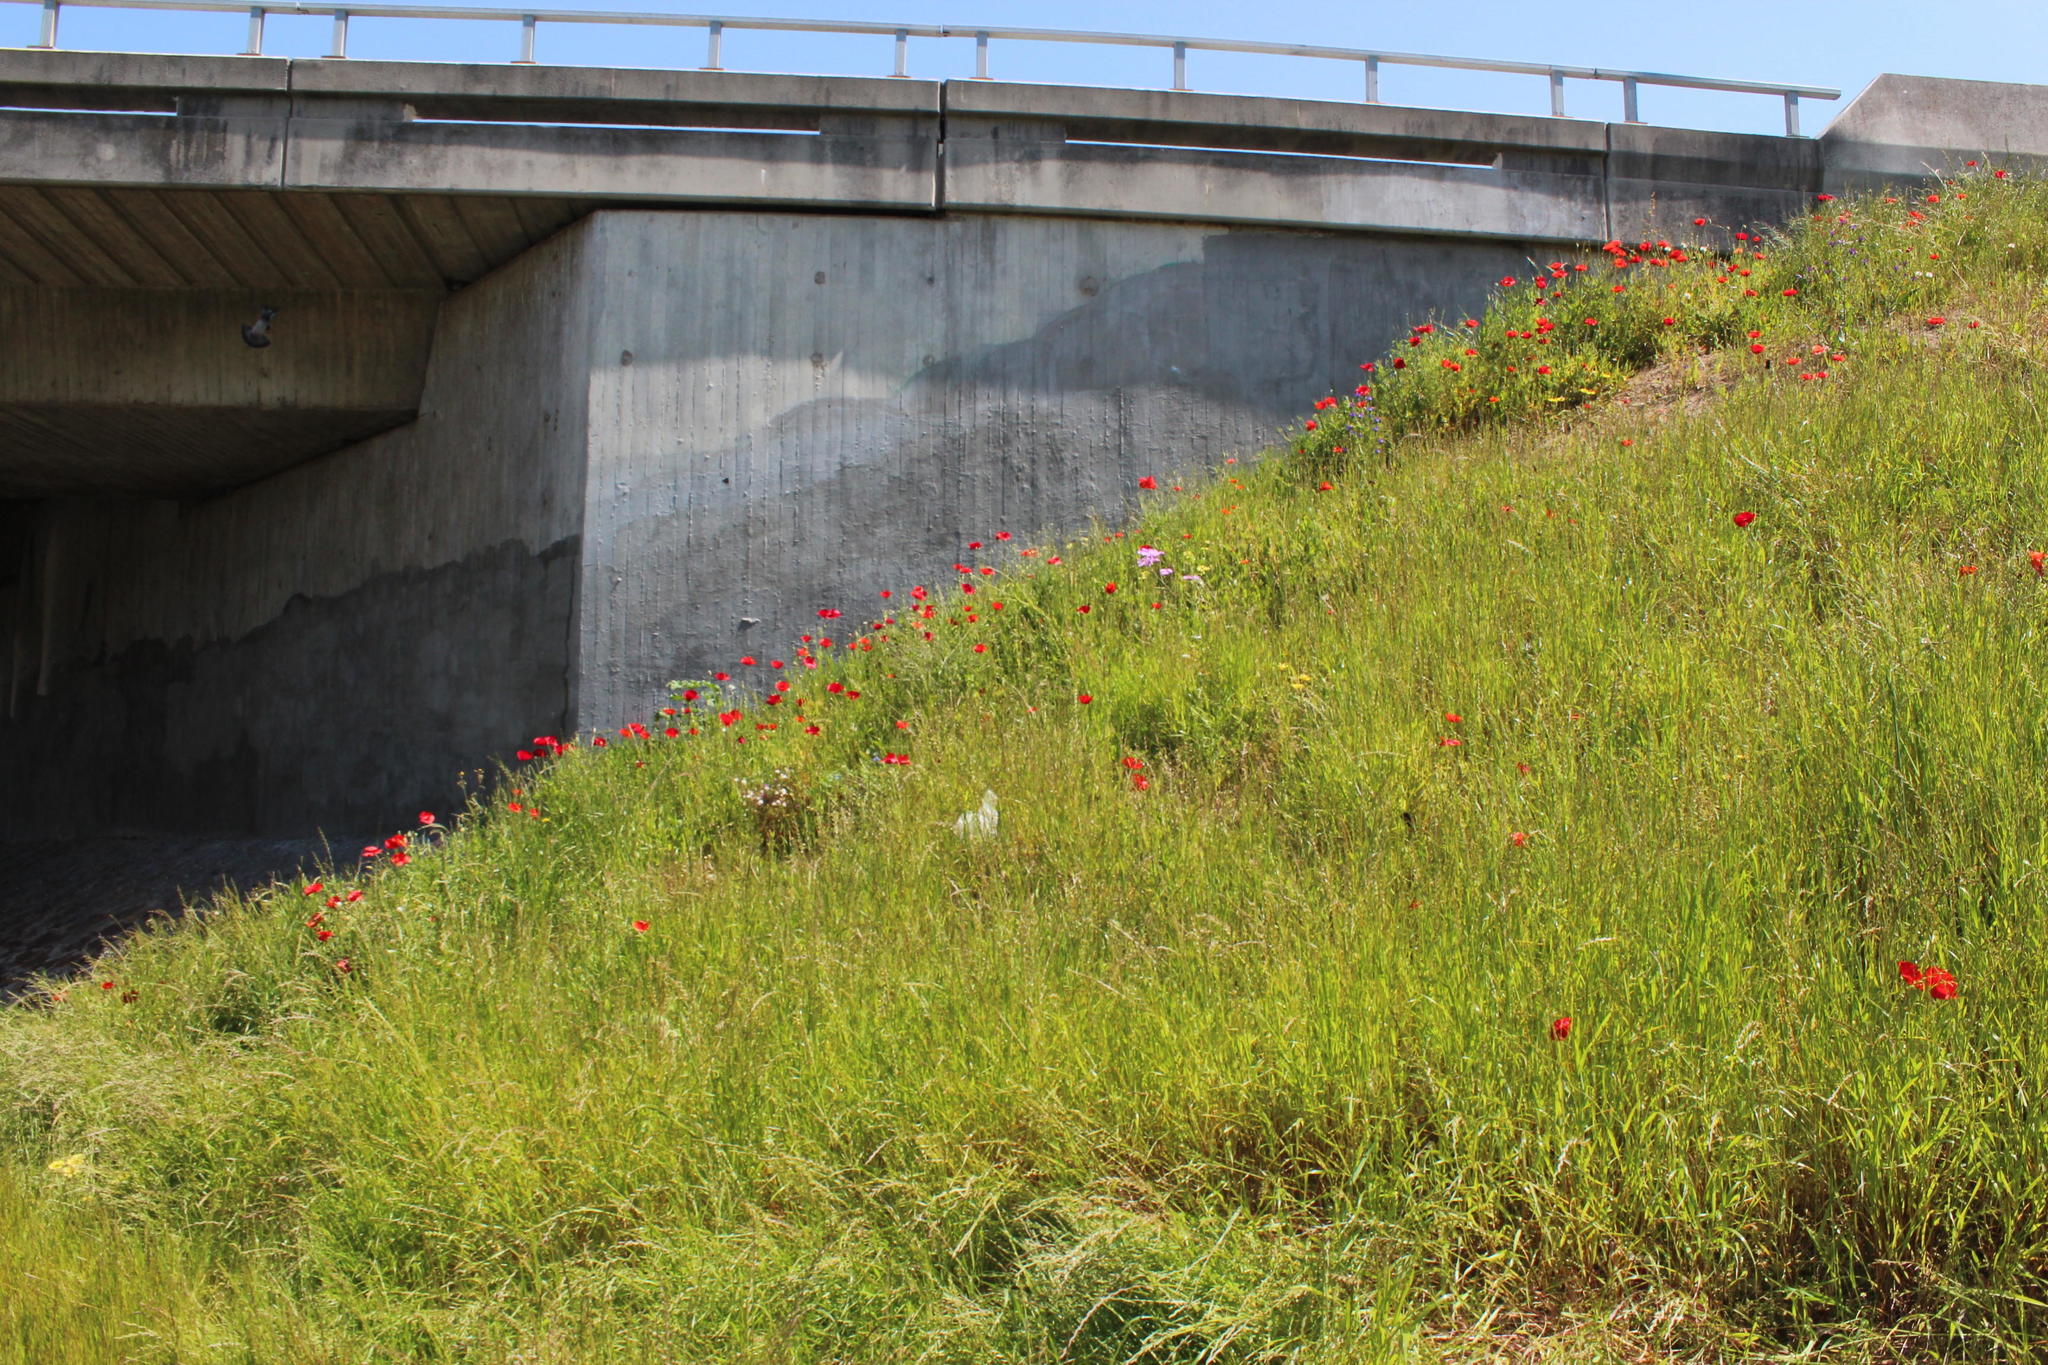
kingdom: Plantae
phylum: Tracheophyta
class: Magnoliopsida
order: Ranunculales
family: Papaveraceae
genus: Papaver
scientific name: Papaver rhoeas
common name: Corn poppy
